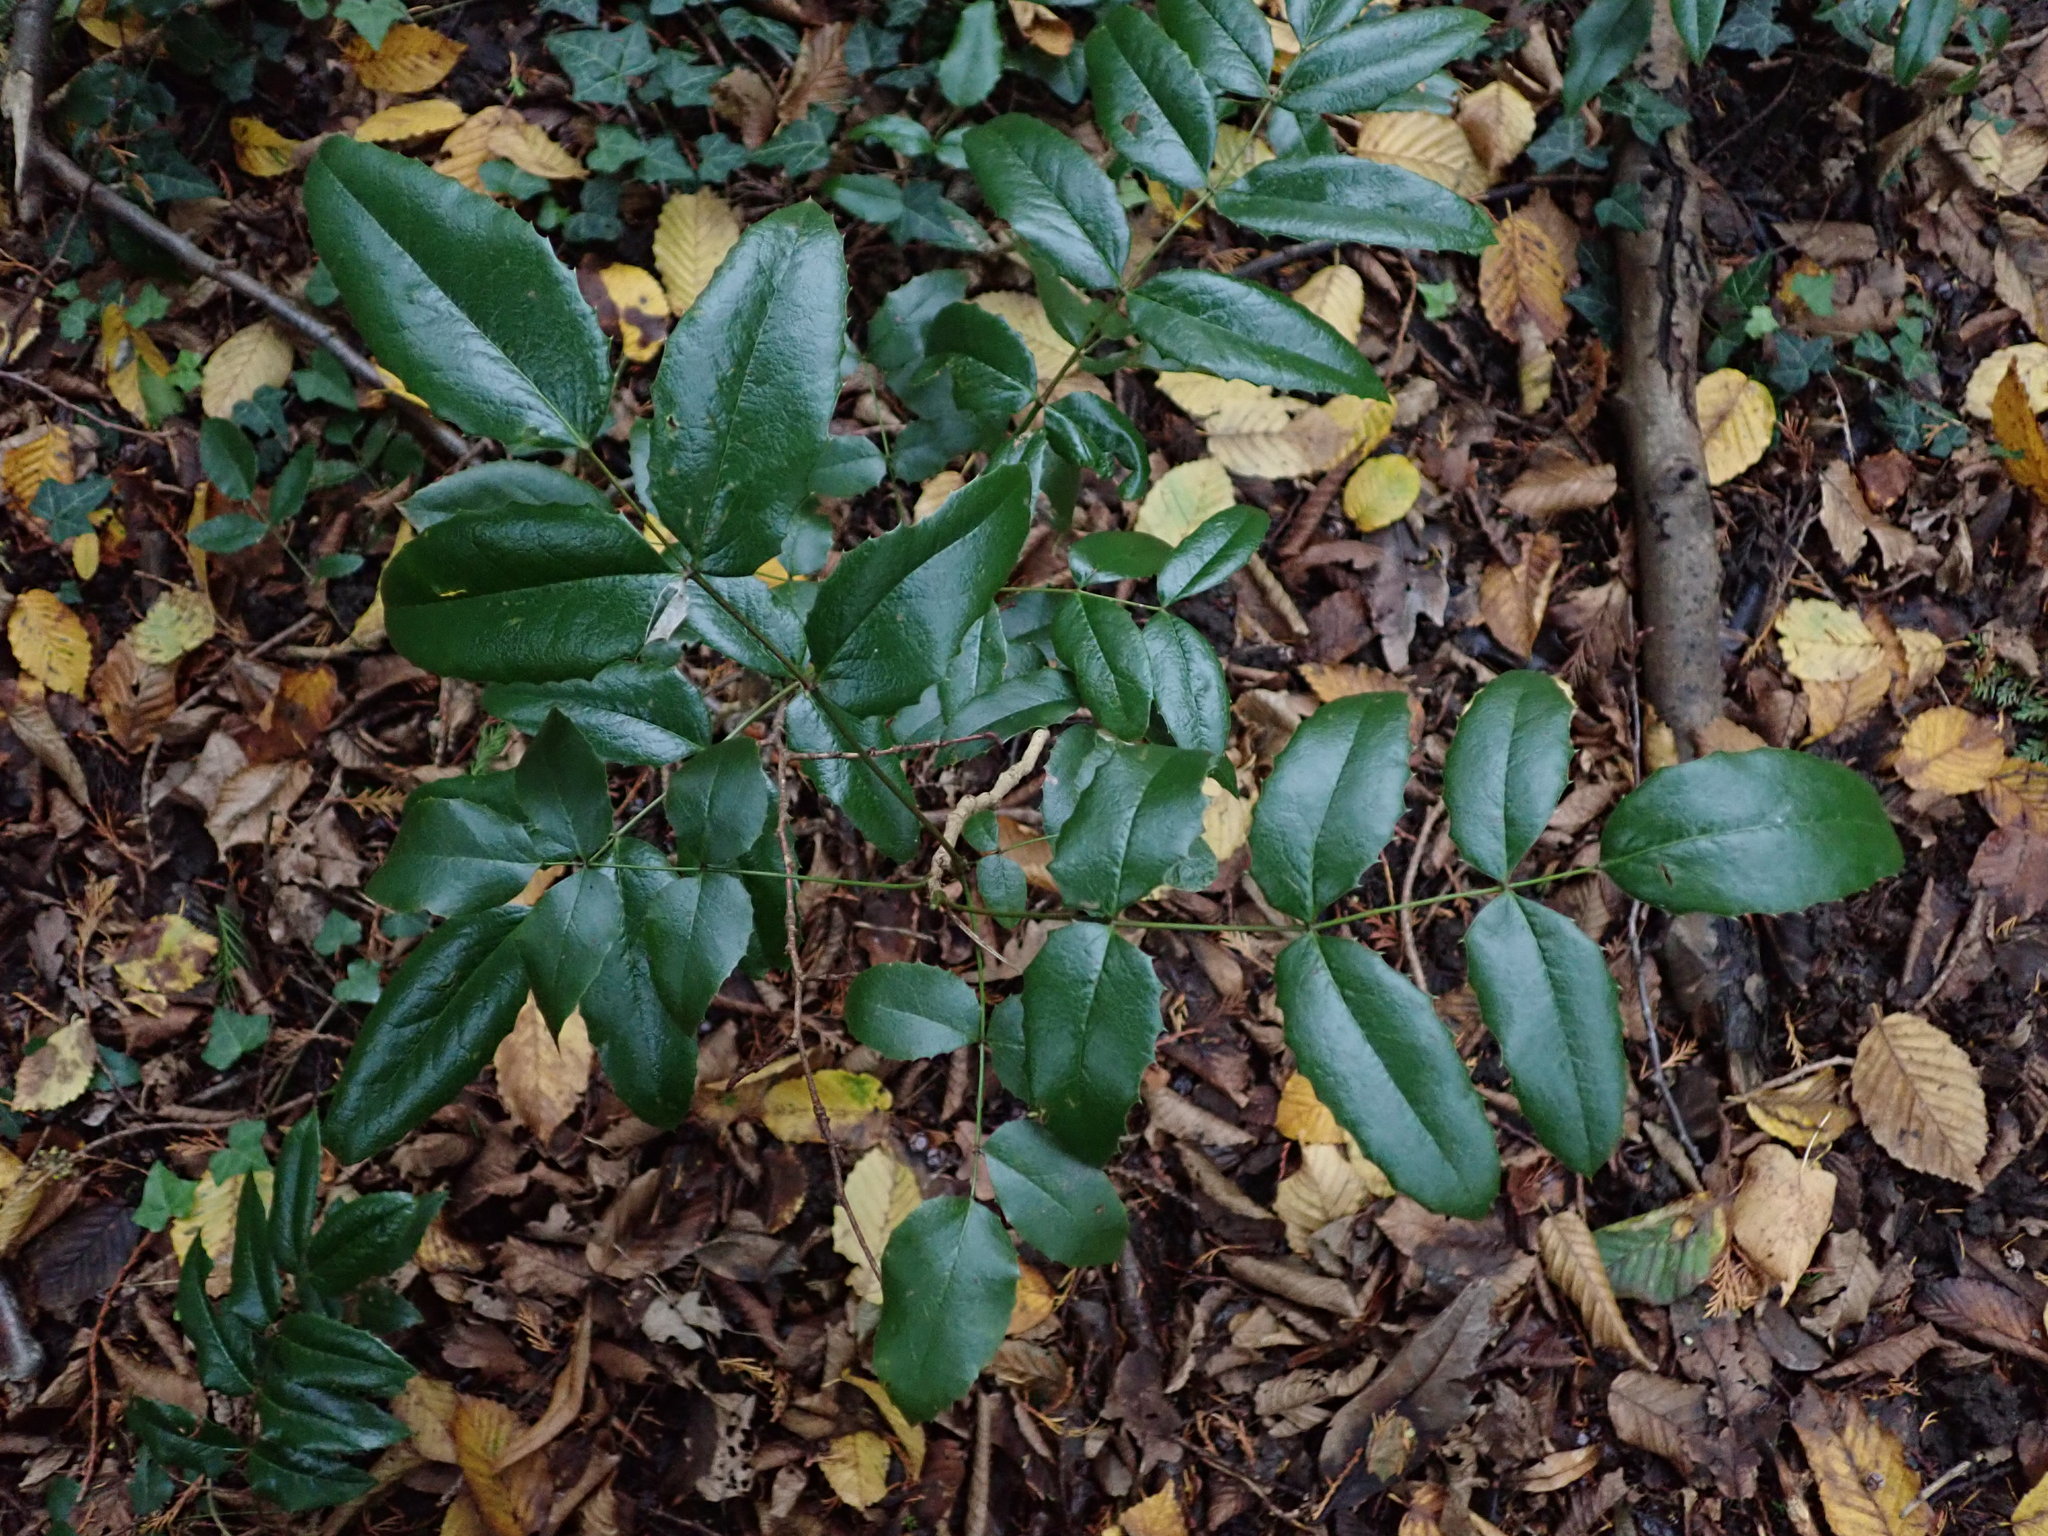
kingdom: Plantae
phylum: Tracheophyta
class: Magnoliopsida
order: Ranunculales
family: Berberidaceae
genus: Mahonia
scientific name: Mahonia aquifolium
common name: Oregon-grape
